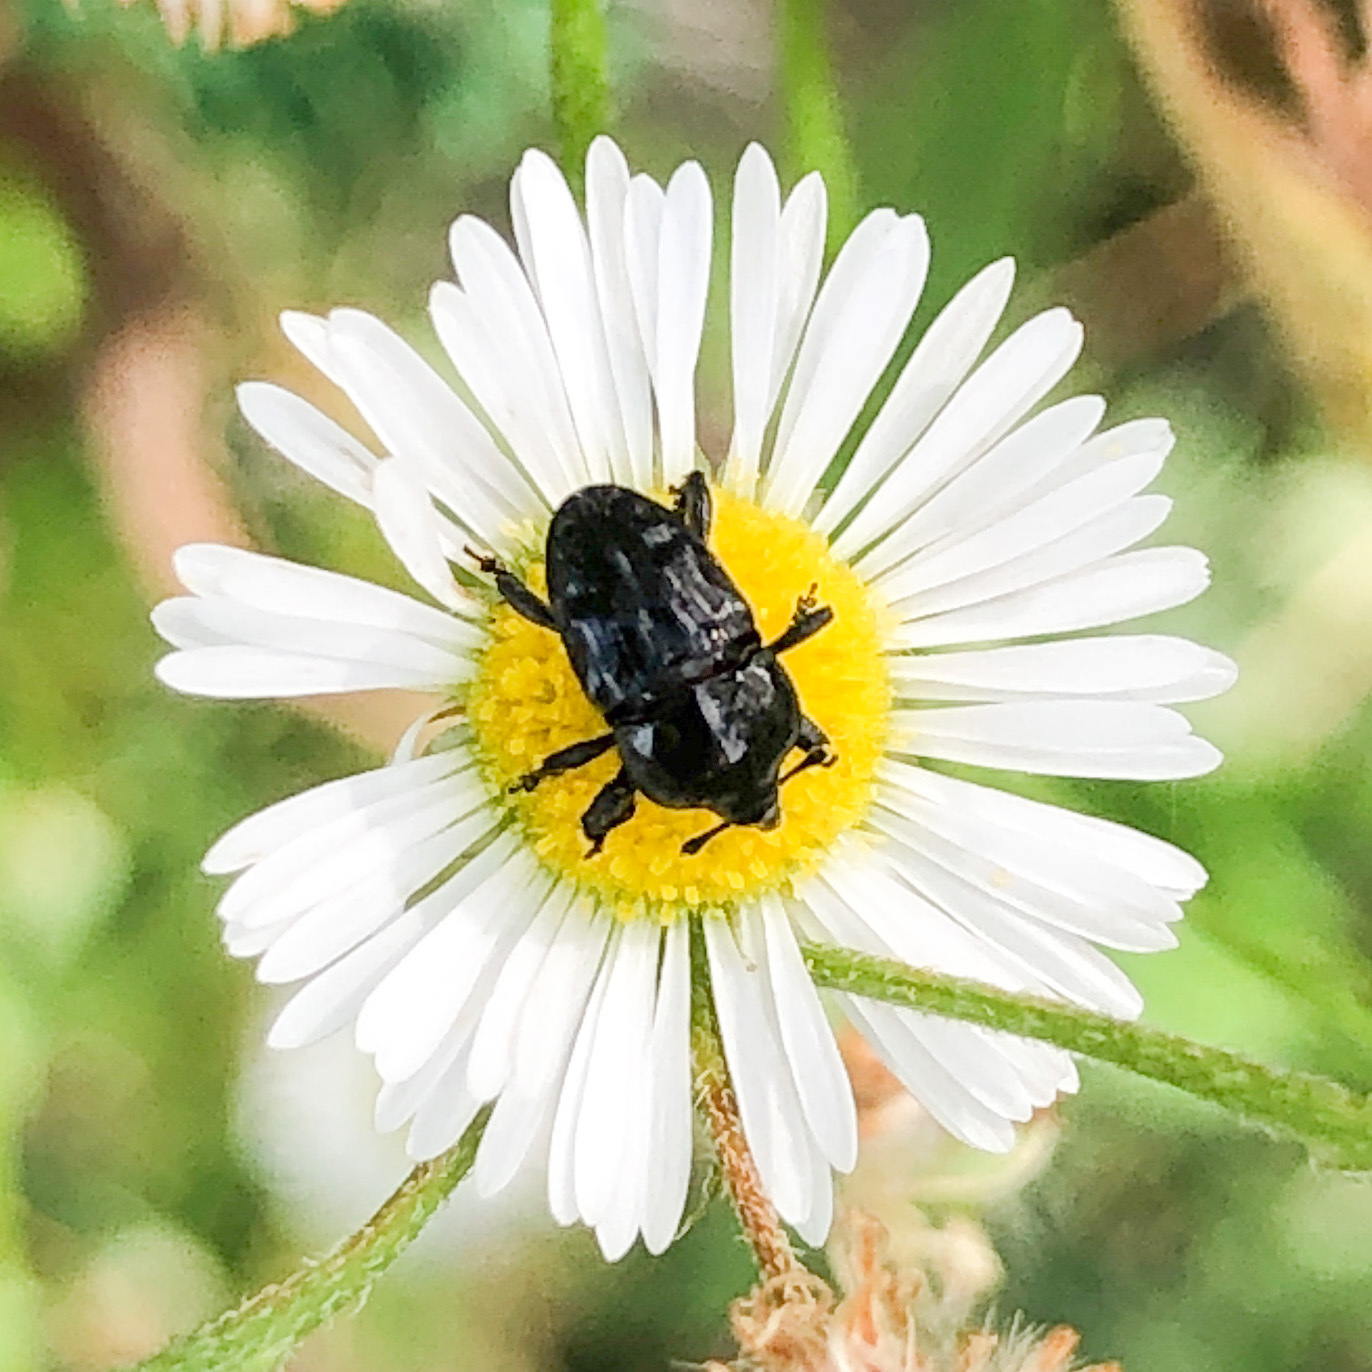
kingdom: Animalia
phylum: Arthropoda
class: Insecta
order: Coleoptera
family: Curculionidae
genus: Madarellus
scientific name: Madarellus undulatus
